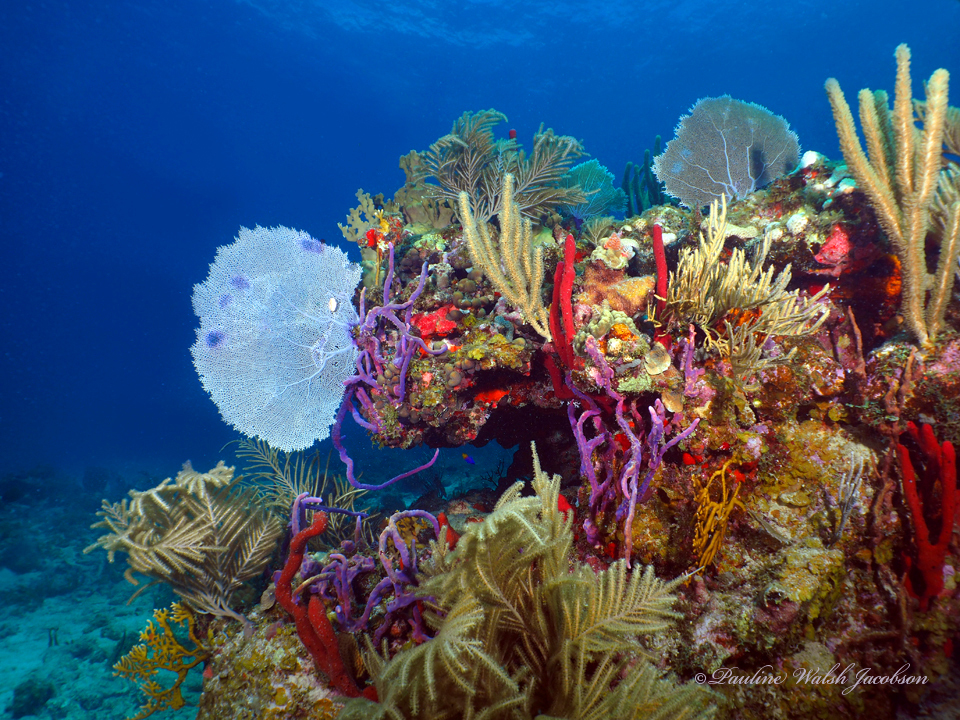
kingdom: Animalia
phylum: Cnidaria
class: Anthozoa
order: Malacalcyonacea
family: Gorgoniidae
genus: Gorgonia
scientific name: Gorgonia ventalina
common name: Common sea fan
